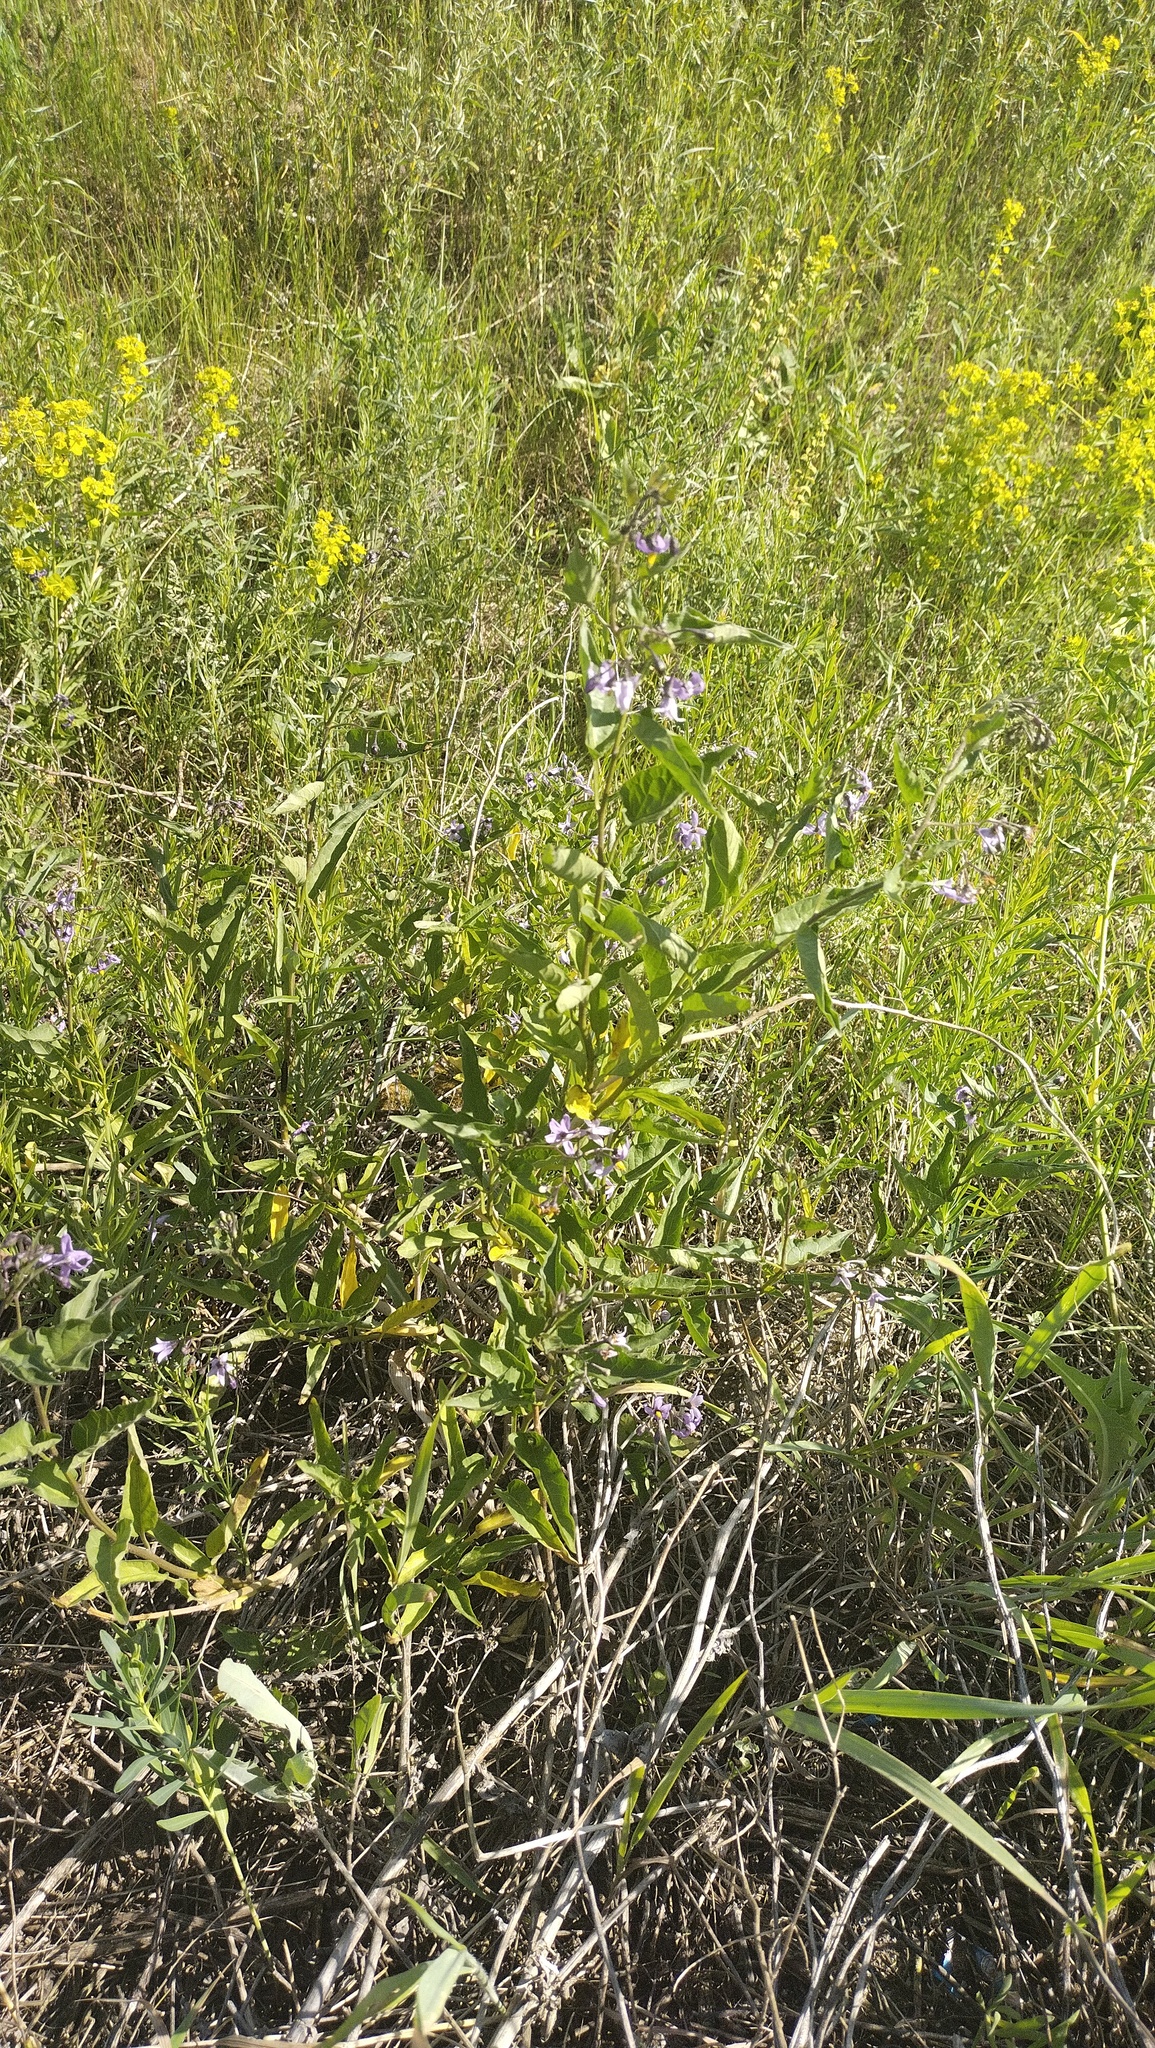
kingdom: Plantae
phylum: Tracheophyta
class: Magnoliopsida
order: Solanales
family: Solanaceae
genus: Solanum
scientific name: Solanum dulcamara
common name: Climbing nightshade
